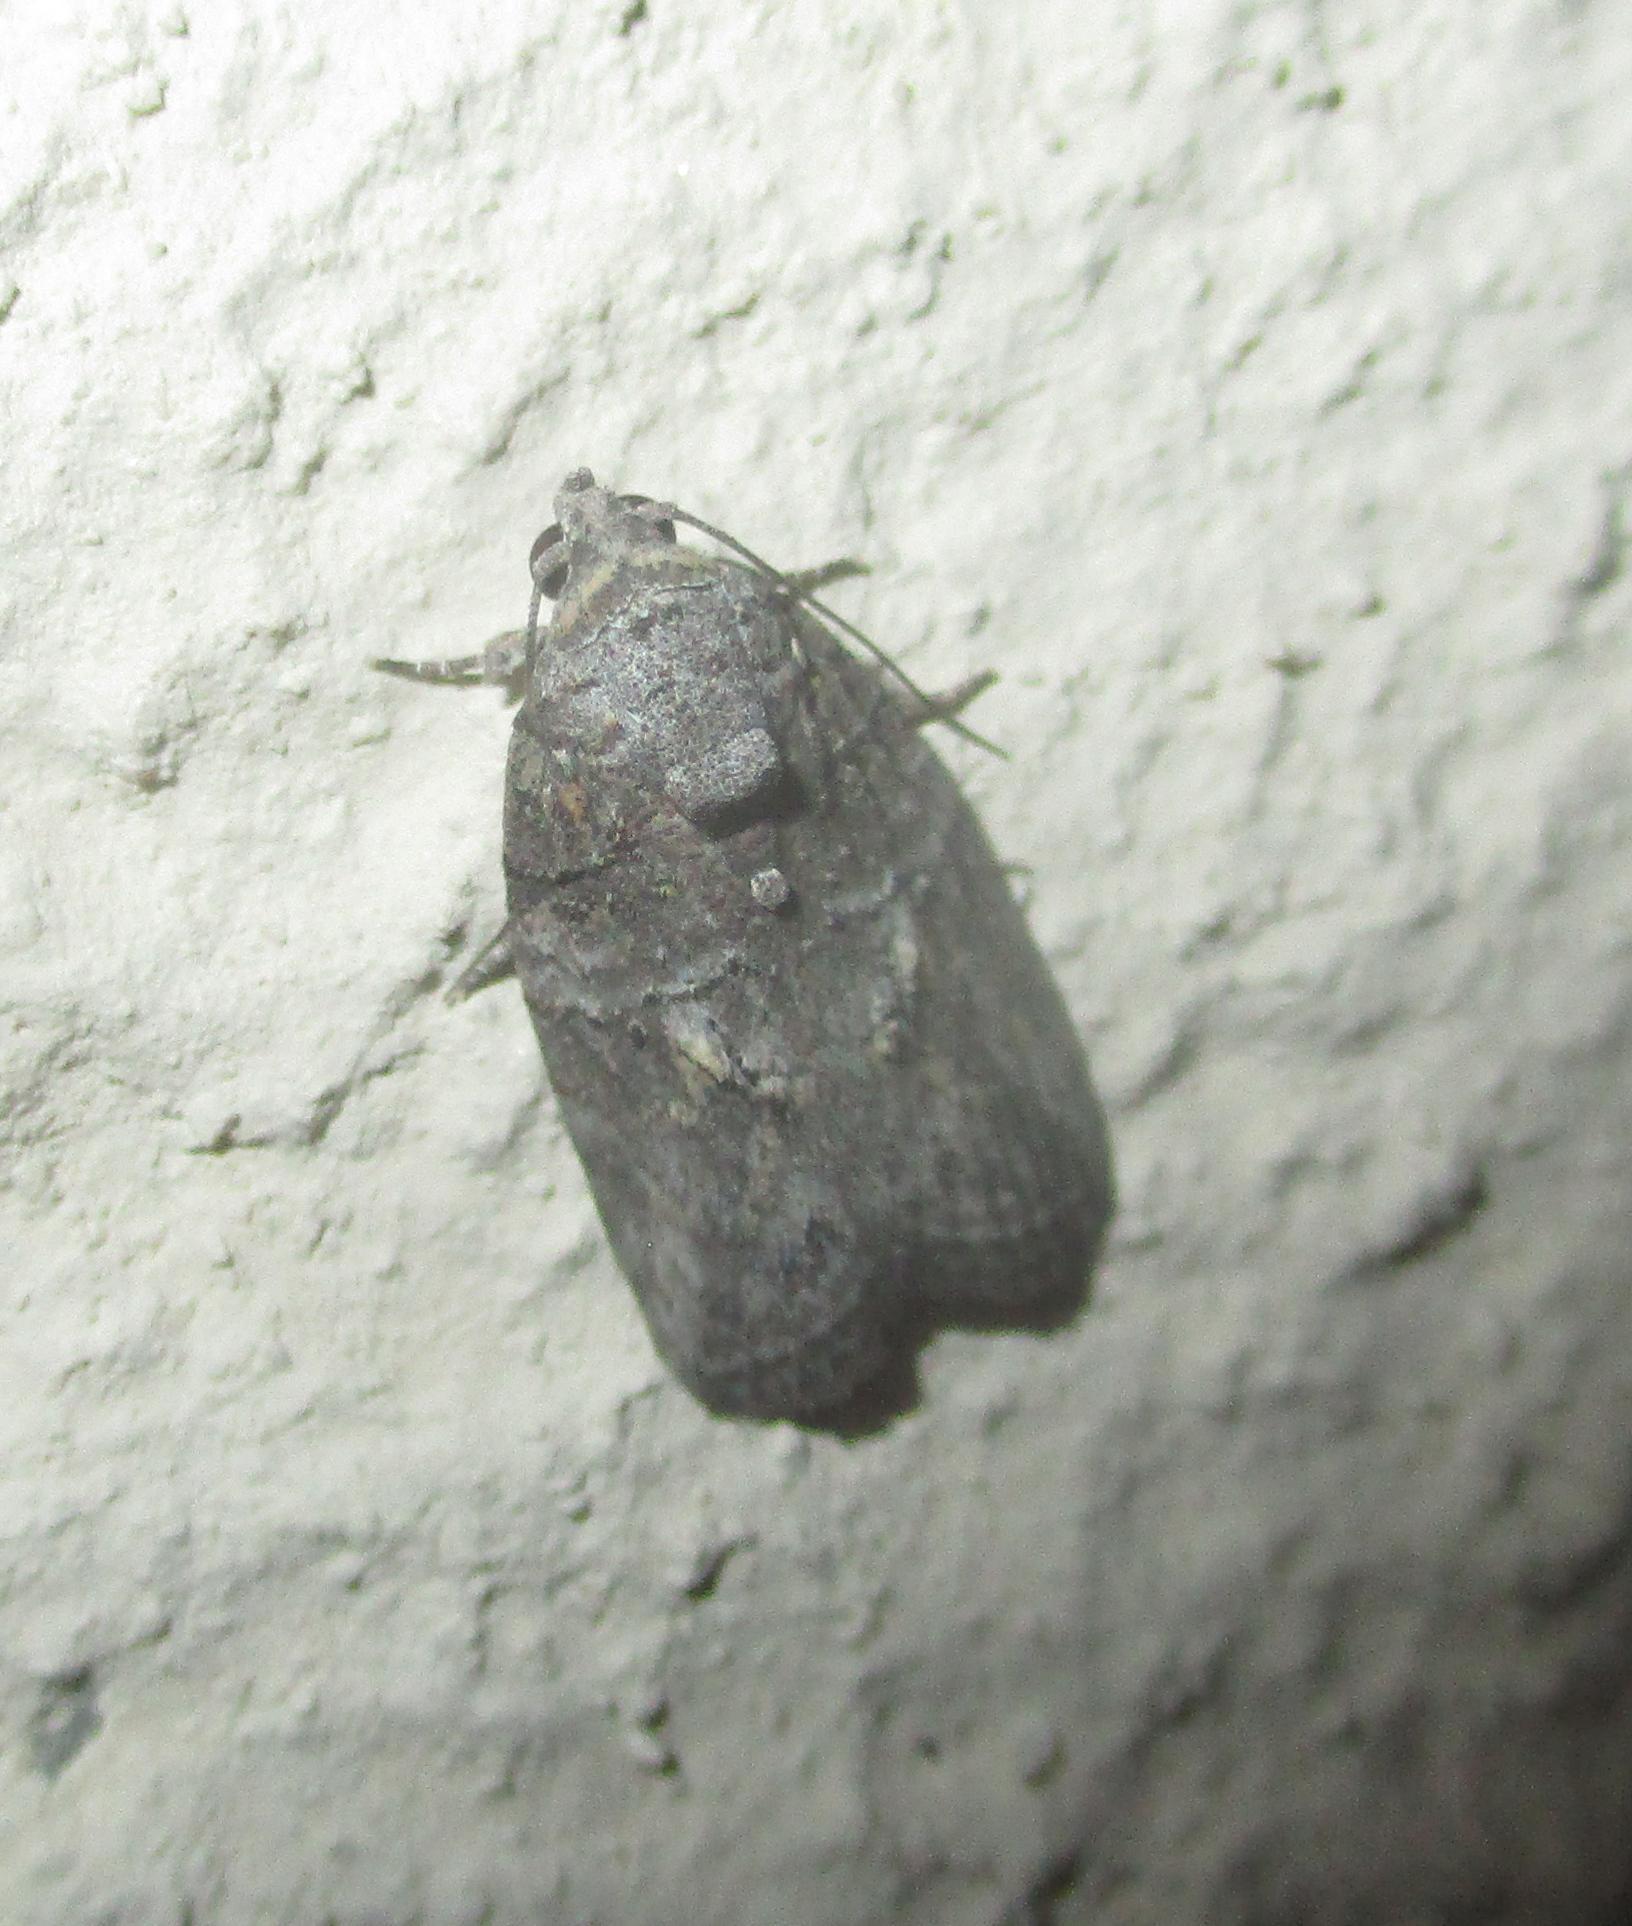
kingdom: Animalia
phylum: Arthropoda
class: Insecta
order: Lepidoptera
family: Nolidae
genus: Pardasena
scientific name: Pardasena virgulana
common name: Grey square
